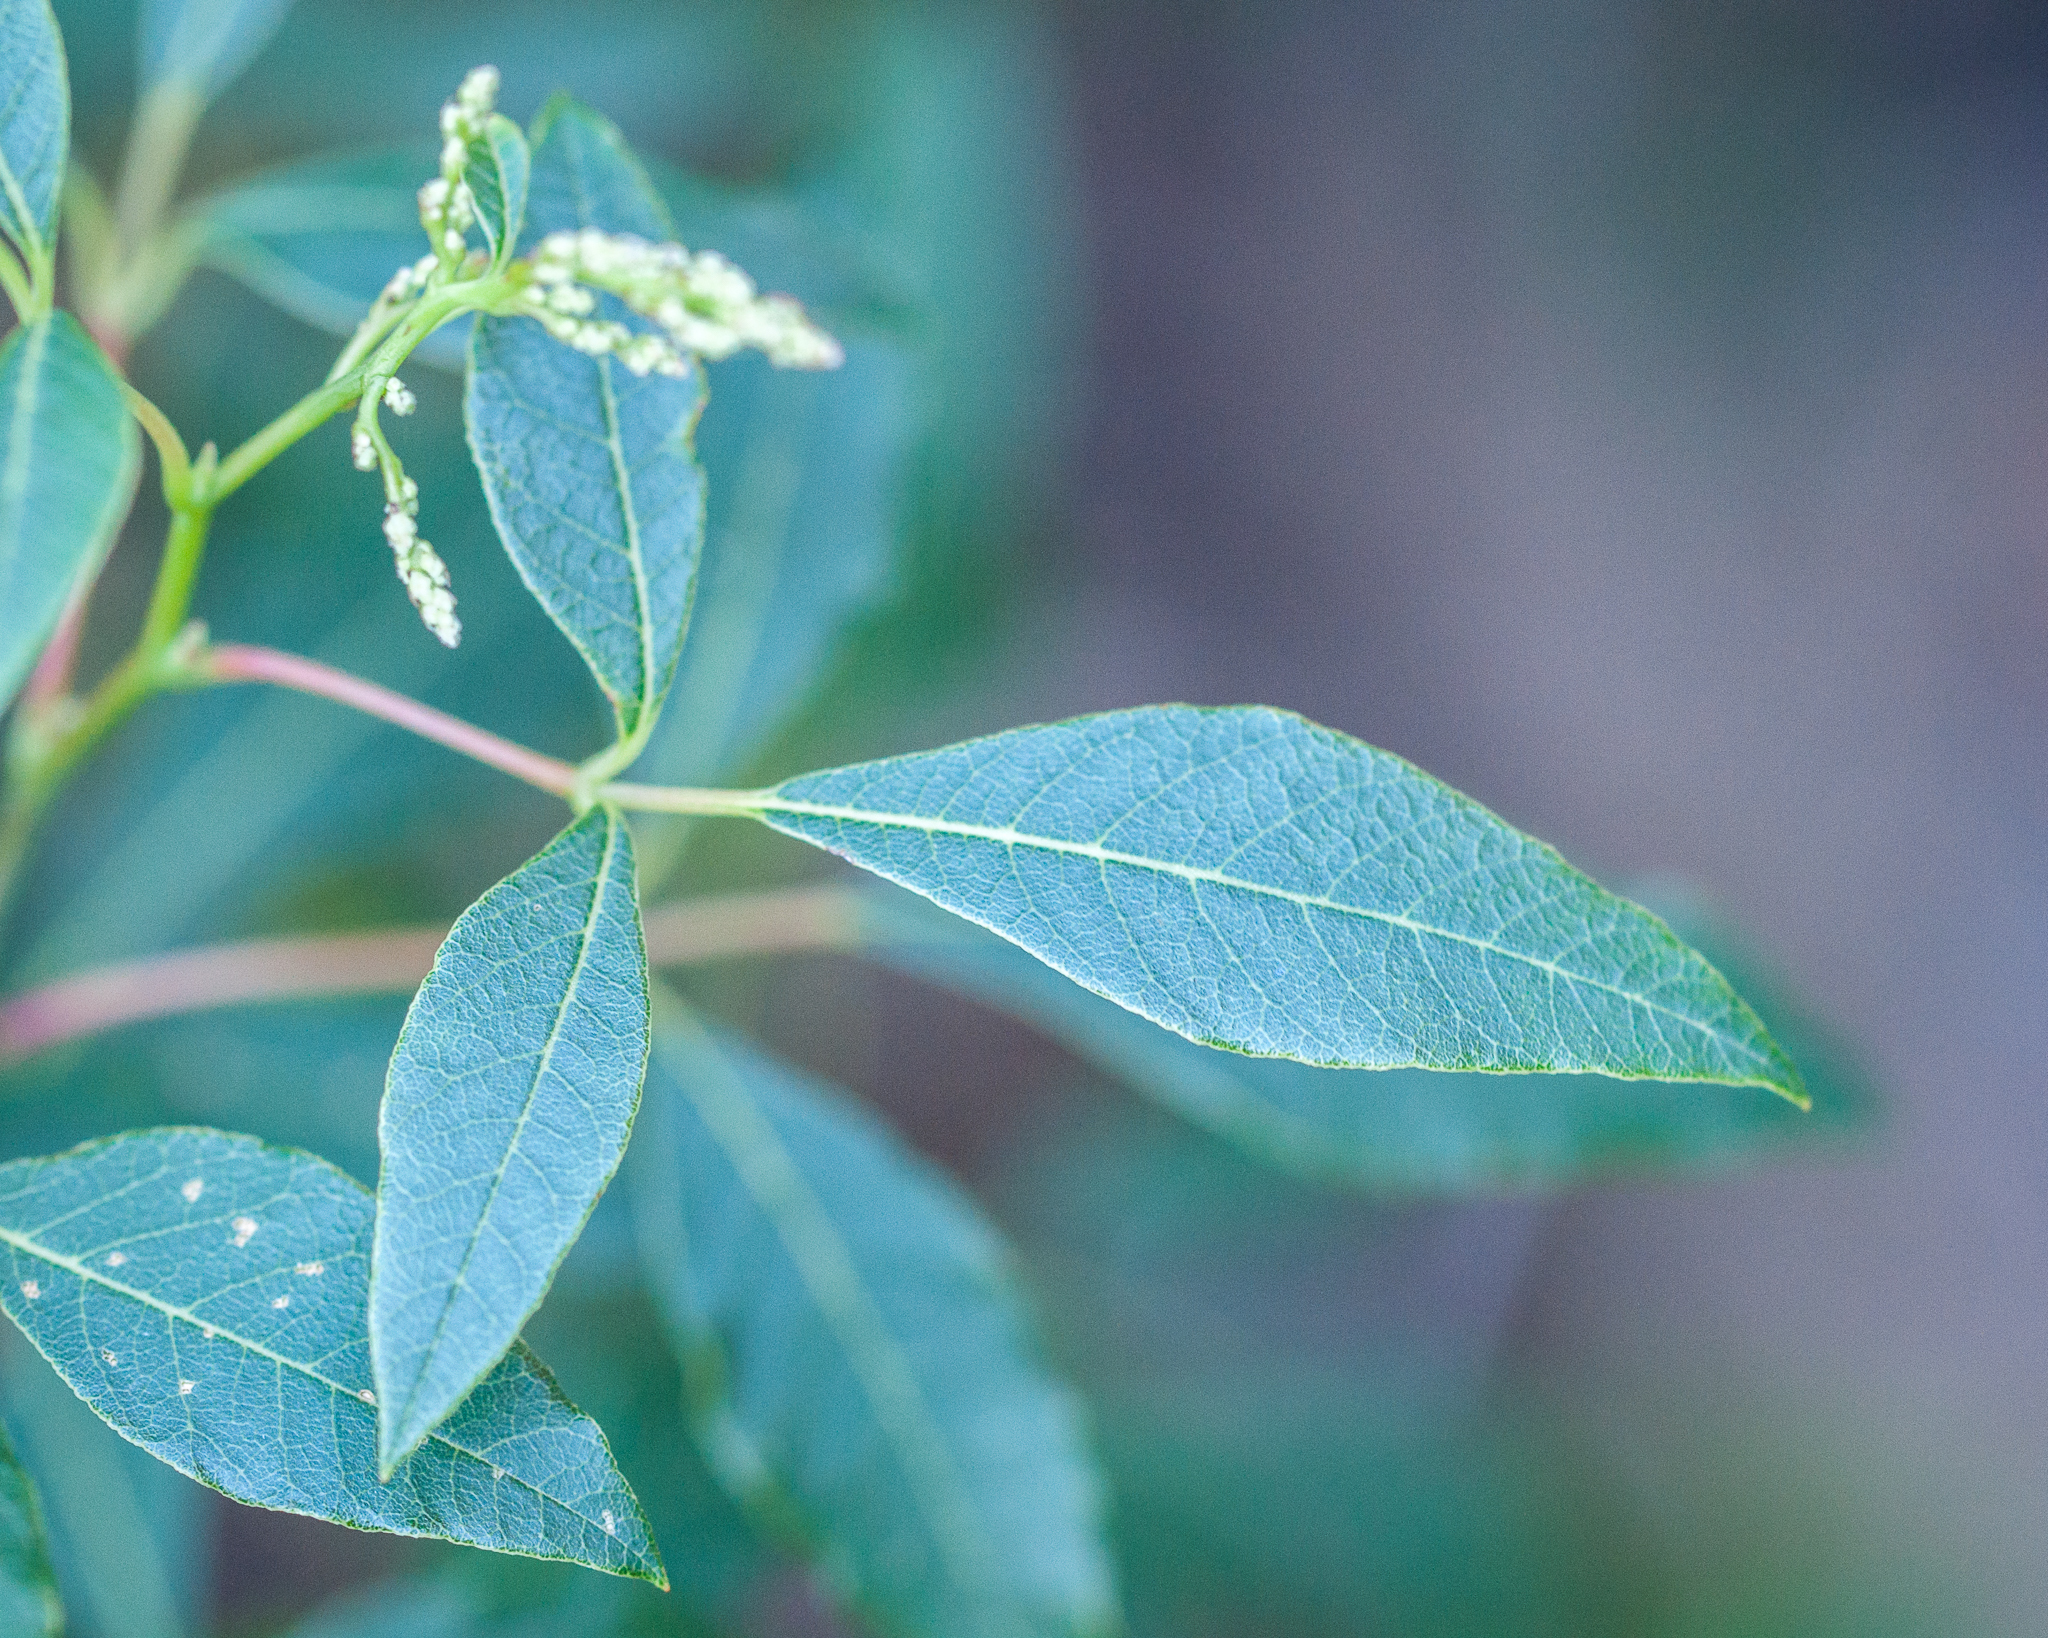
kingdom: Plantae
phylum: Tracheophyta
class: Magnoliopsida
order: Sapindales
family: Anacardiaceae
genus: Searsia
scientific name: Searsia tomentosa
